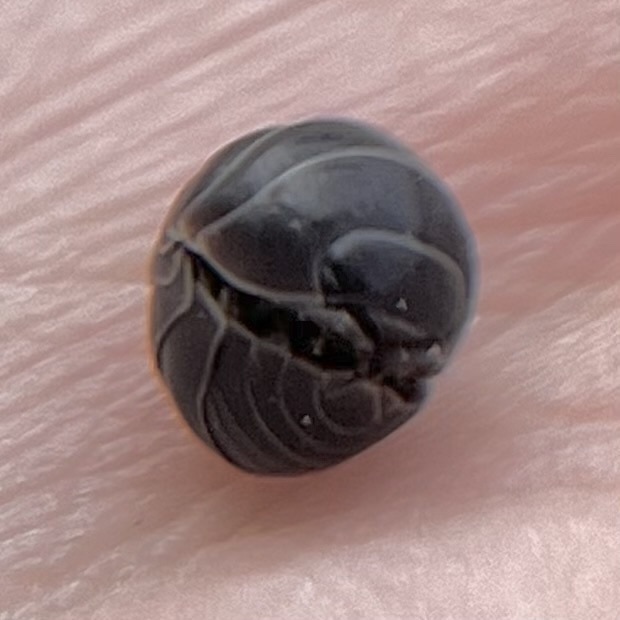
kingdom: Animalia
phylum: Arthropoda
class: Malacostraca
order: Isopoda
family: Armadillidiidae
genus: Armadillidium
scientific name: Armadillidium vulgare
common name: Common pill woodlouse
